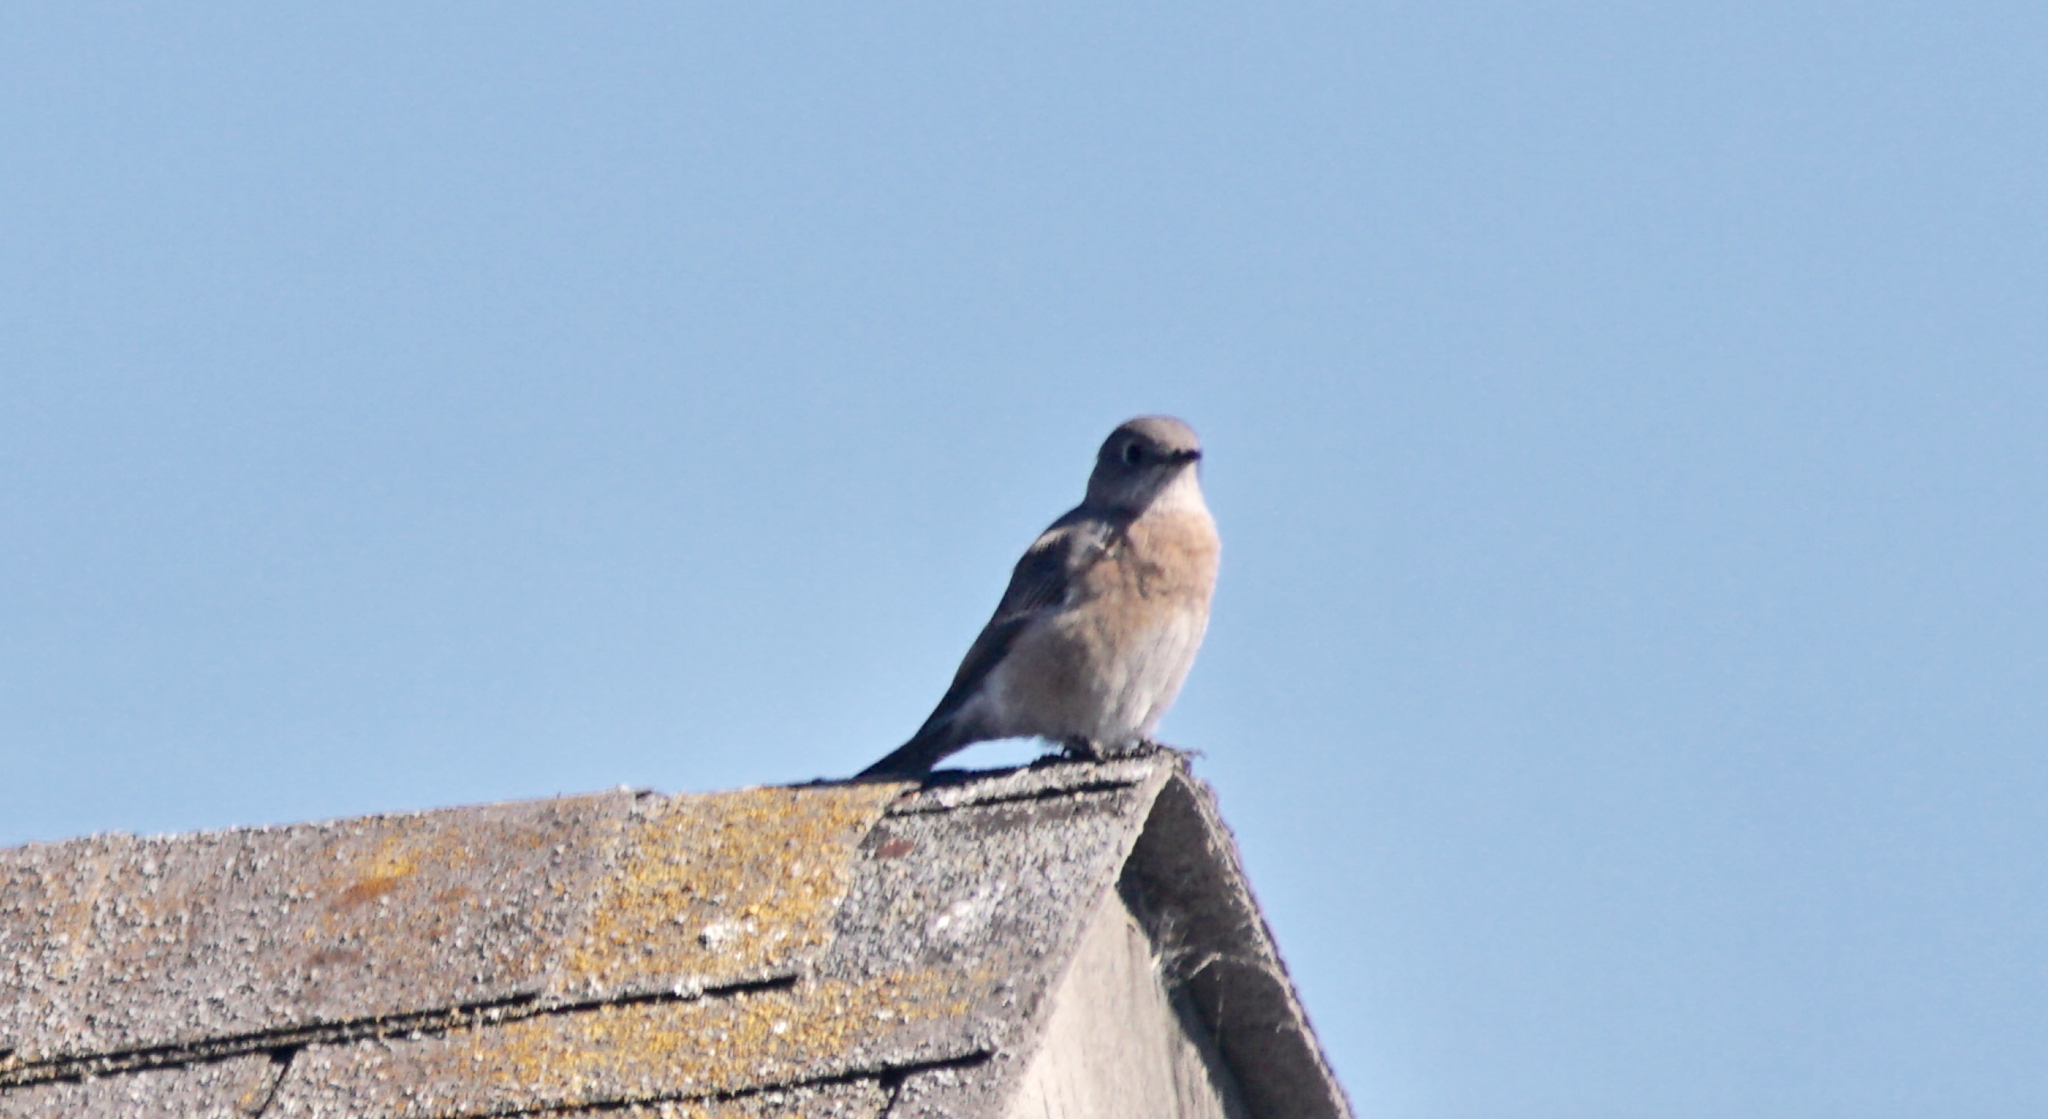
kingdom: Animalia
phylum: Chordata
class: Aves
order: Passeriformes
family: Turdidae
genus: Sialia
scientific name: Sialia mexicana
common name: Western bluebird
